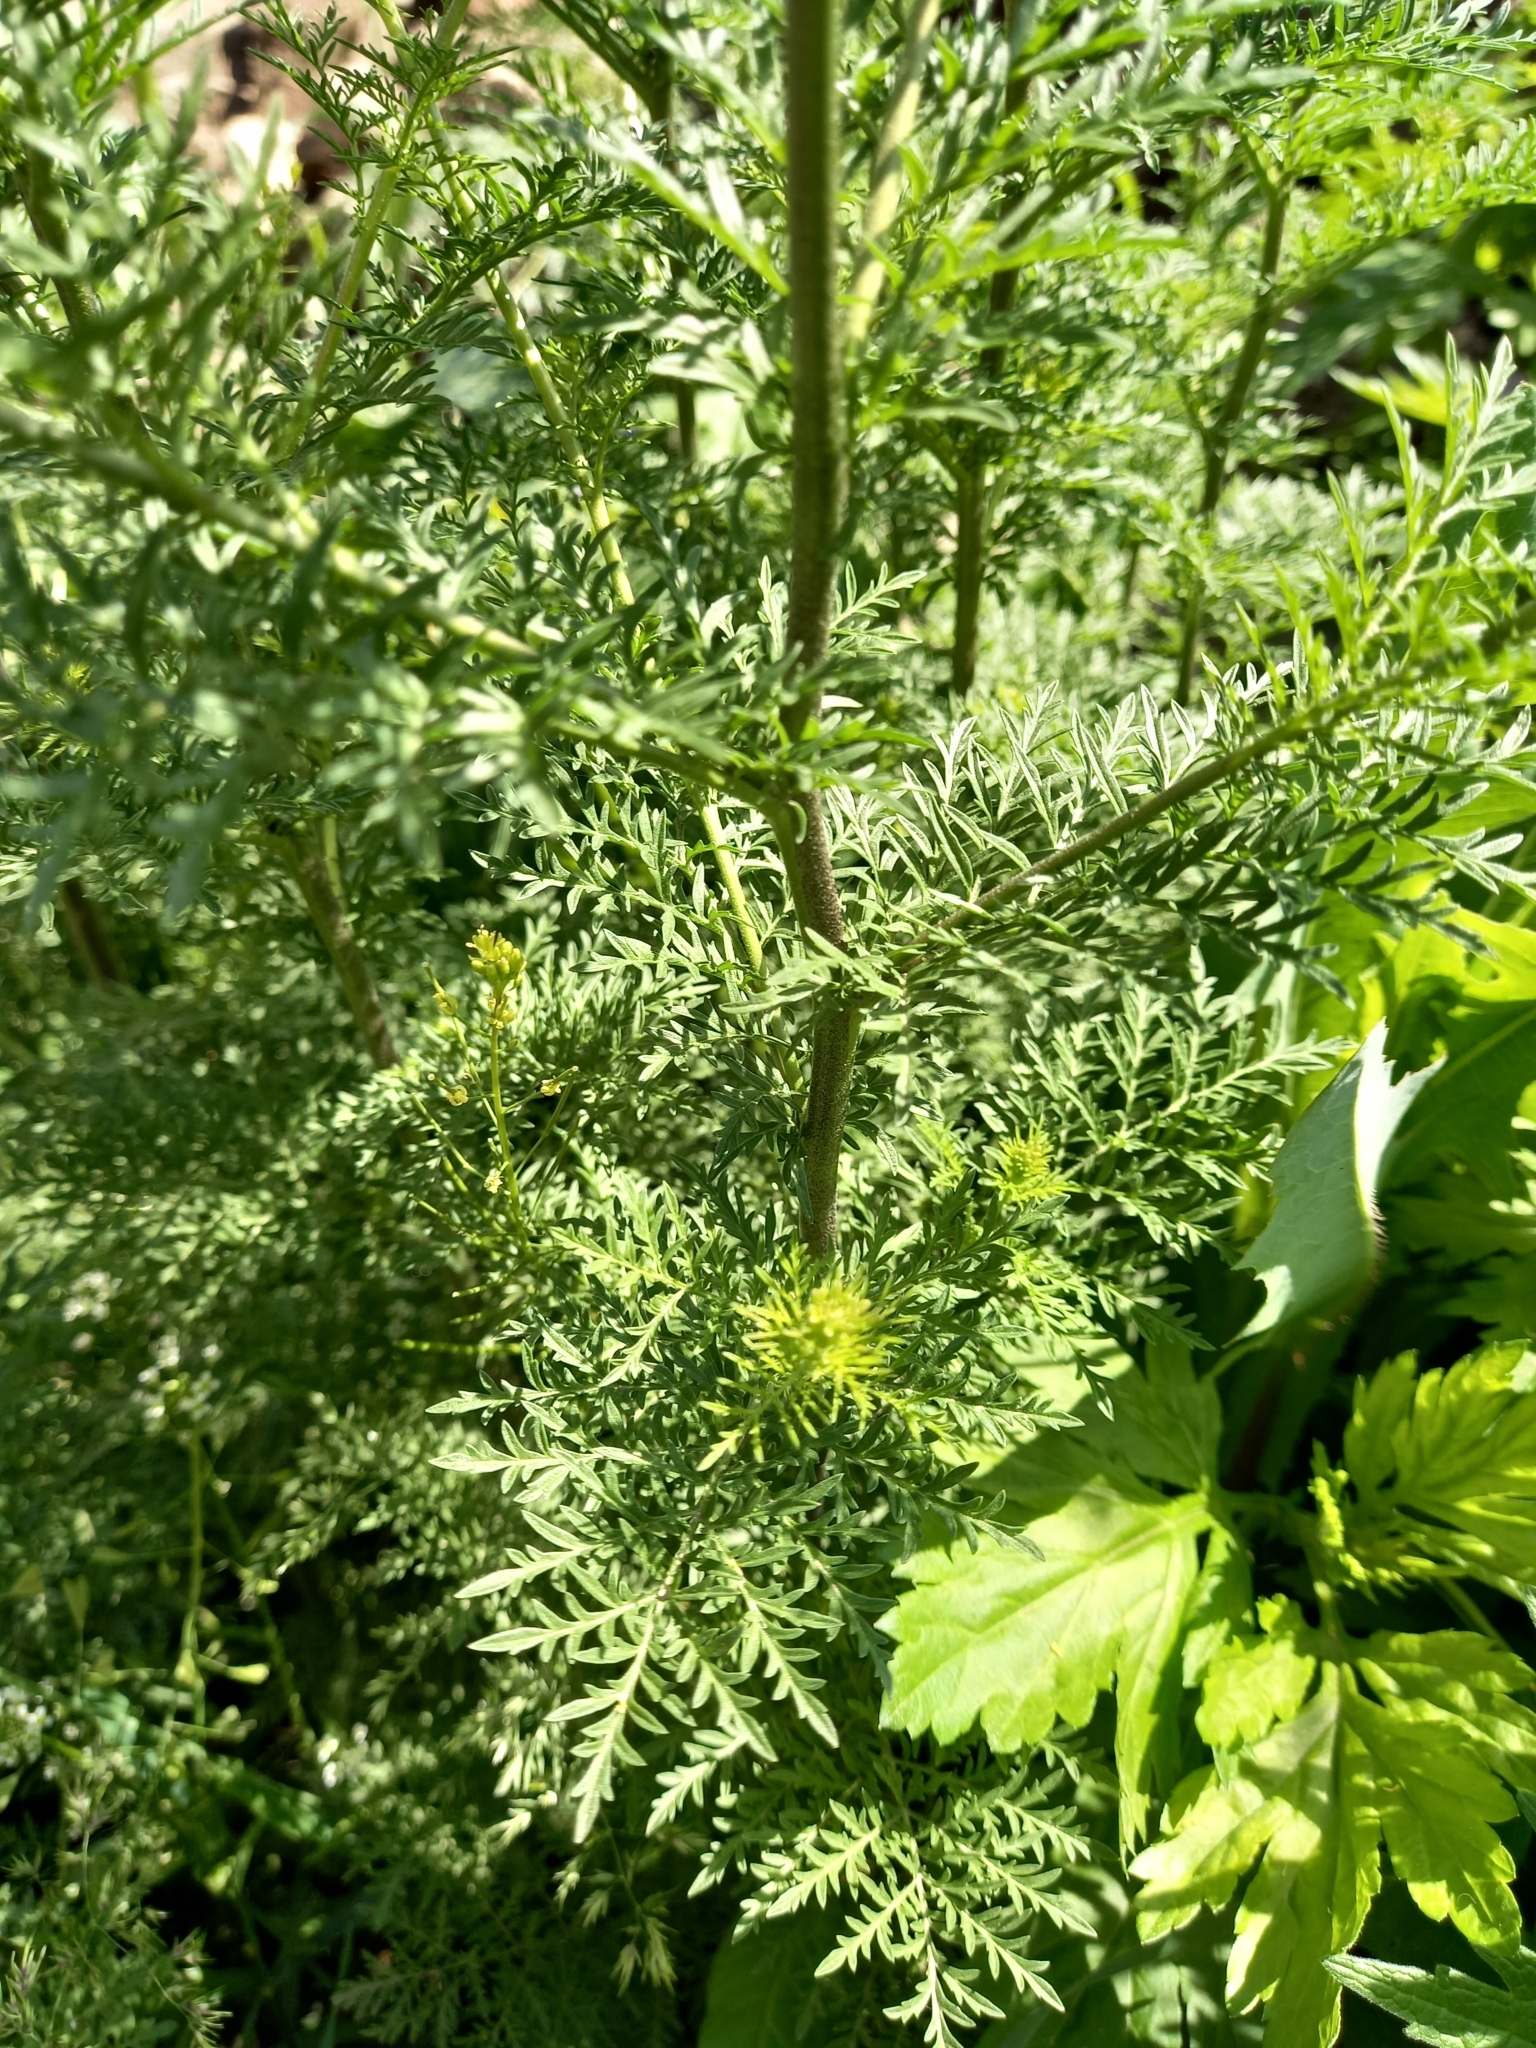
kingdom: Plantae
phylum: Tracheophyta
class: Magnoliopsida
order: Brassicales
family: Brassicaceae
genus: Descurainia
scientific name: Descurainia sophia
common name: Flixweed
